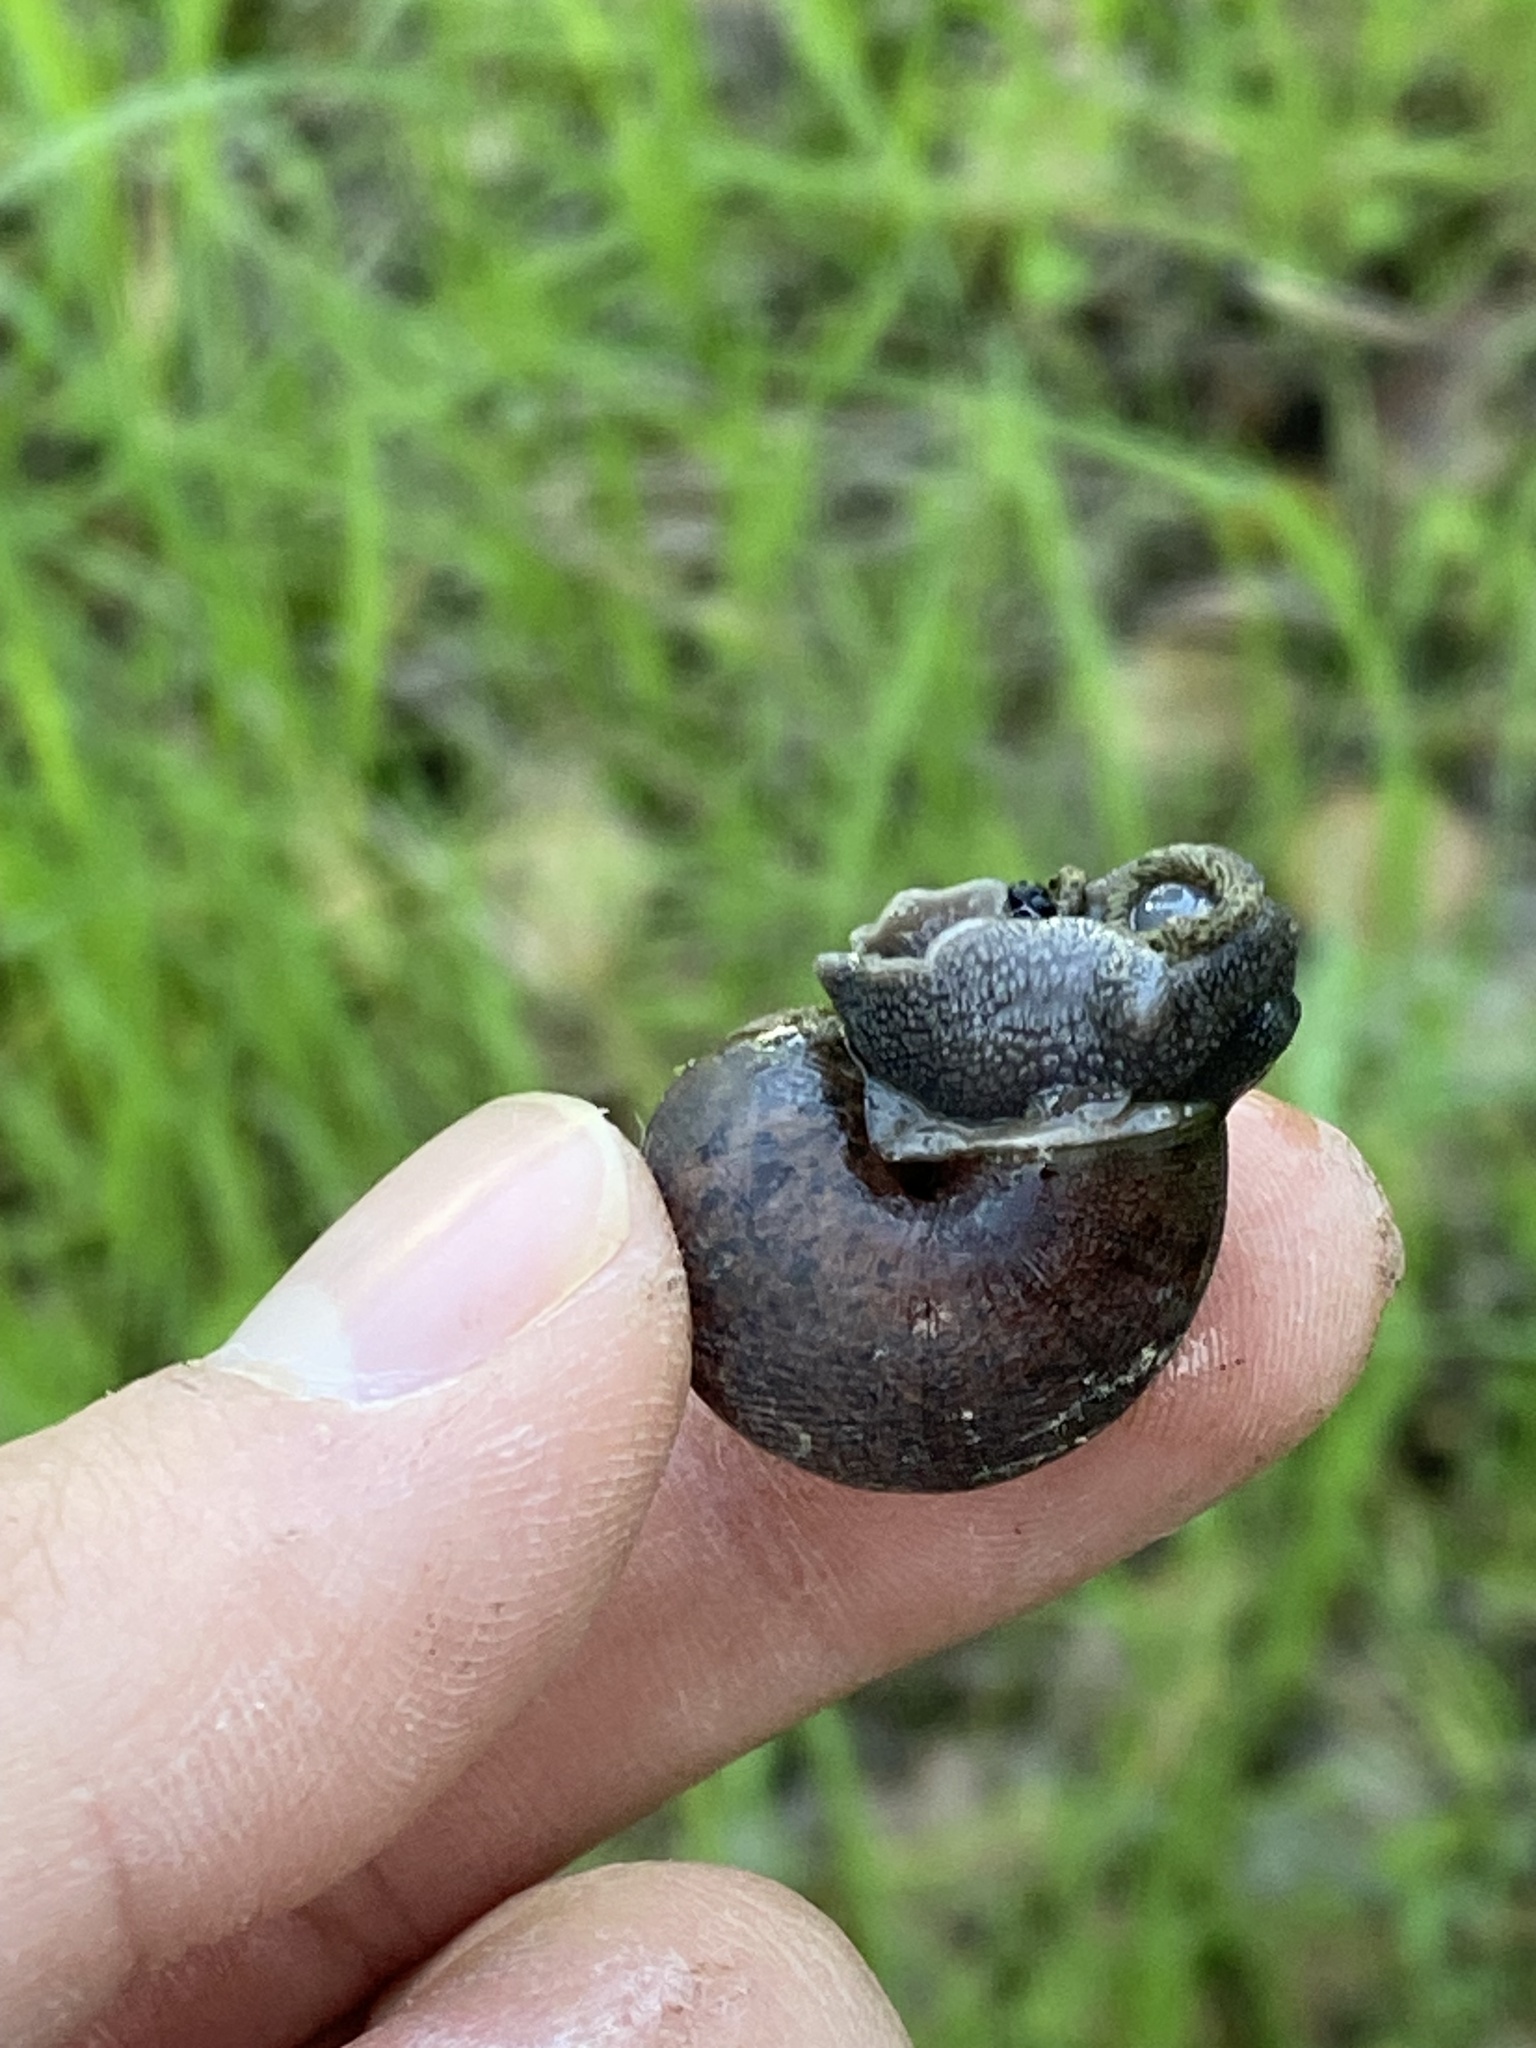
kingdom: Animalia
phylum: Mollusca
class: Gastropoda
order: Stylommatophora
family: Xanthonychidae
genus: Helminthoglypta
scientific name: Helminthoglypta nickliniana
